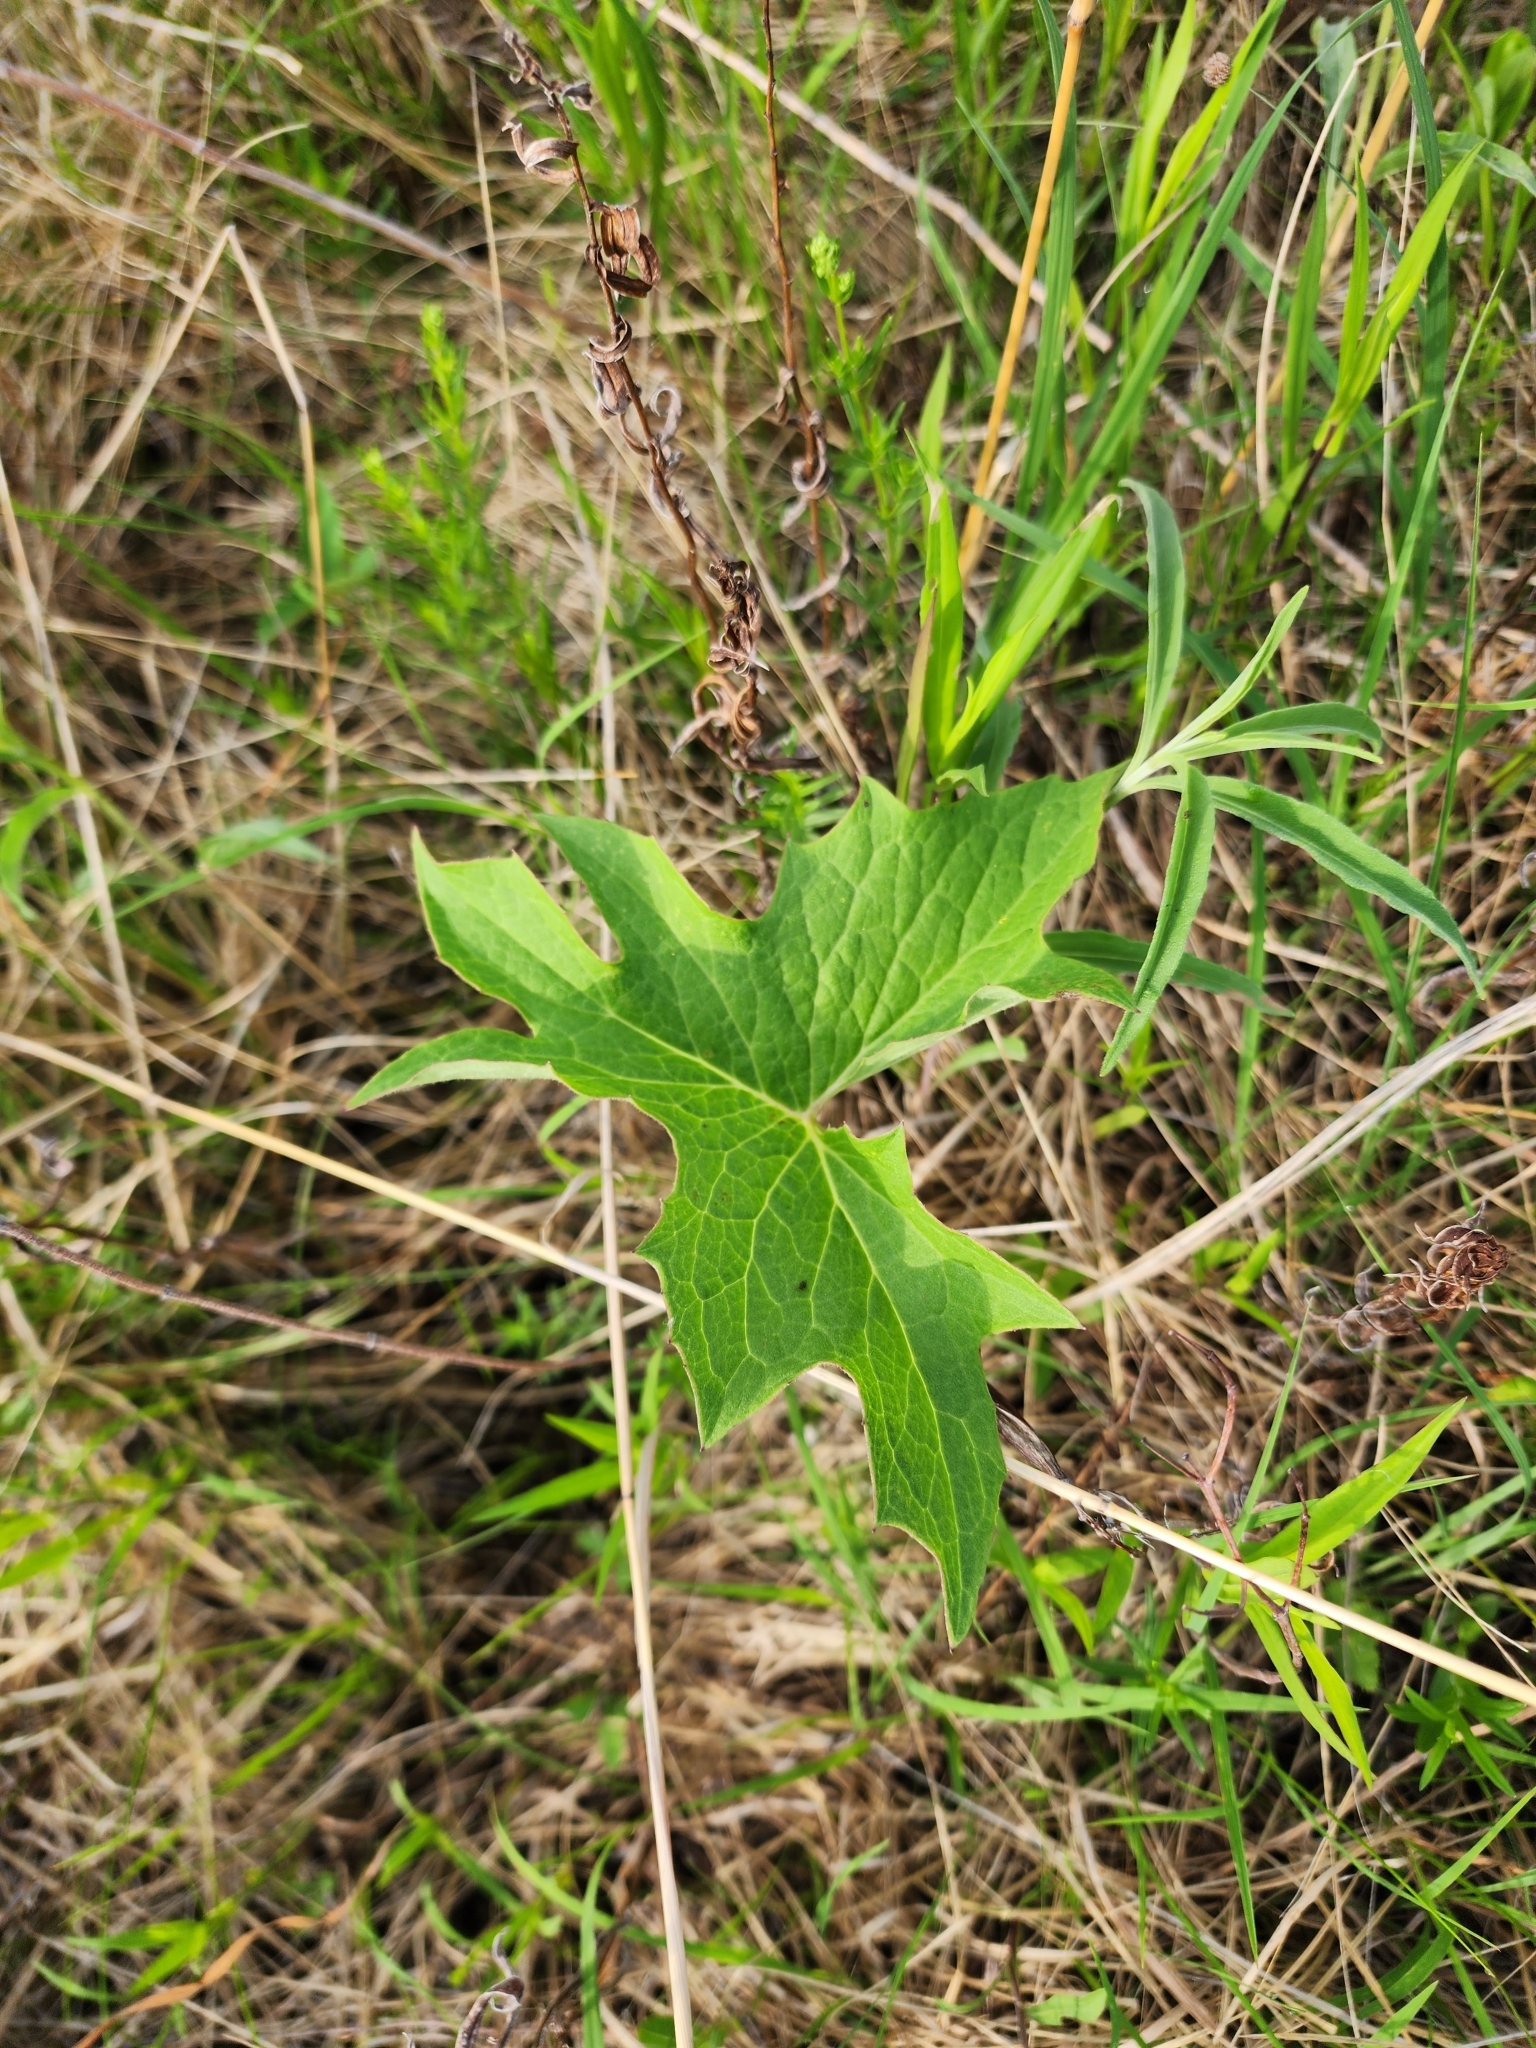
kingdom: Plantae
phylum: Tracheophyta
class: Magnoliopsida
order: Asterales
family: Asteraceae
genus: Nabalus
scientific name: Nabalus albus
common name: White rattlesnakeroot
